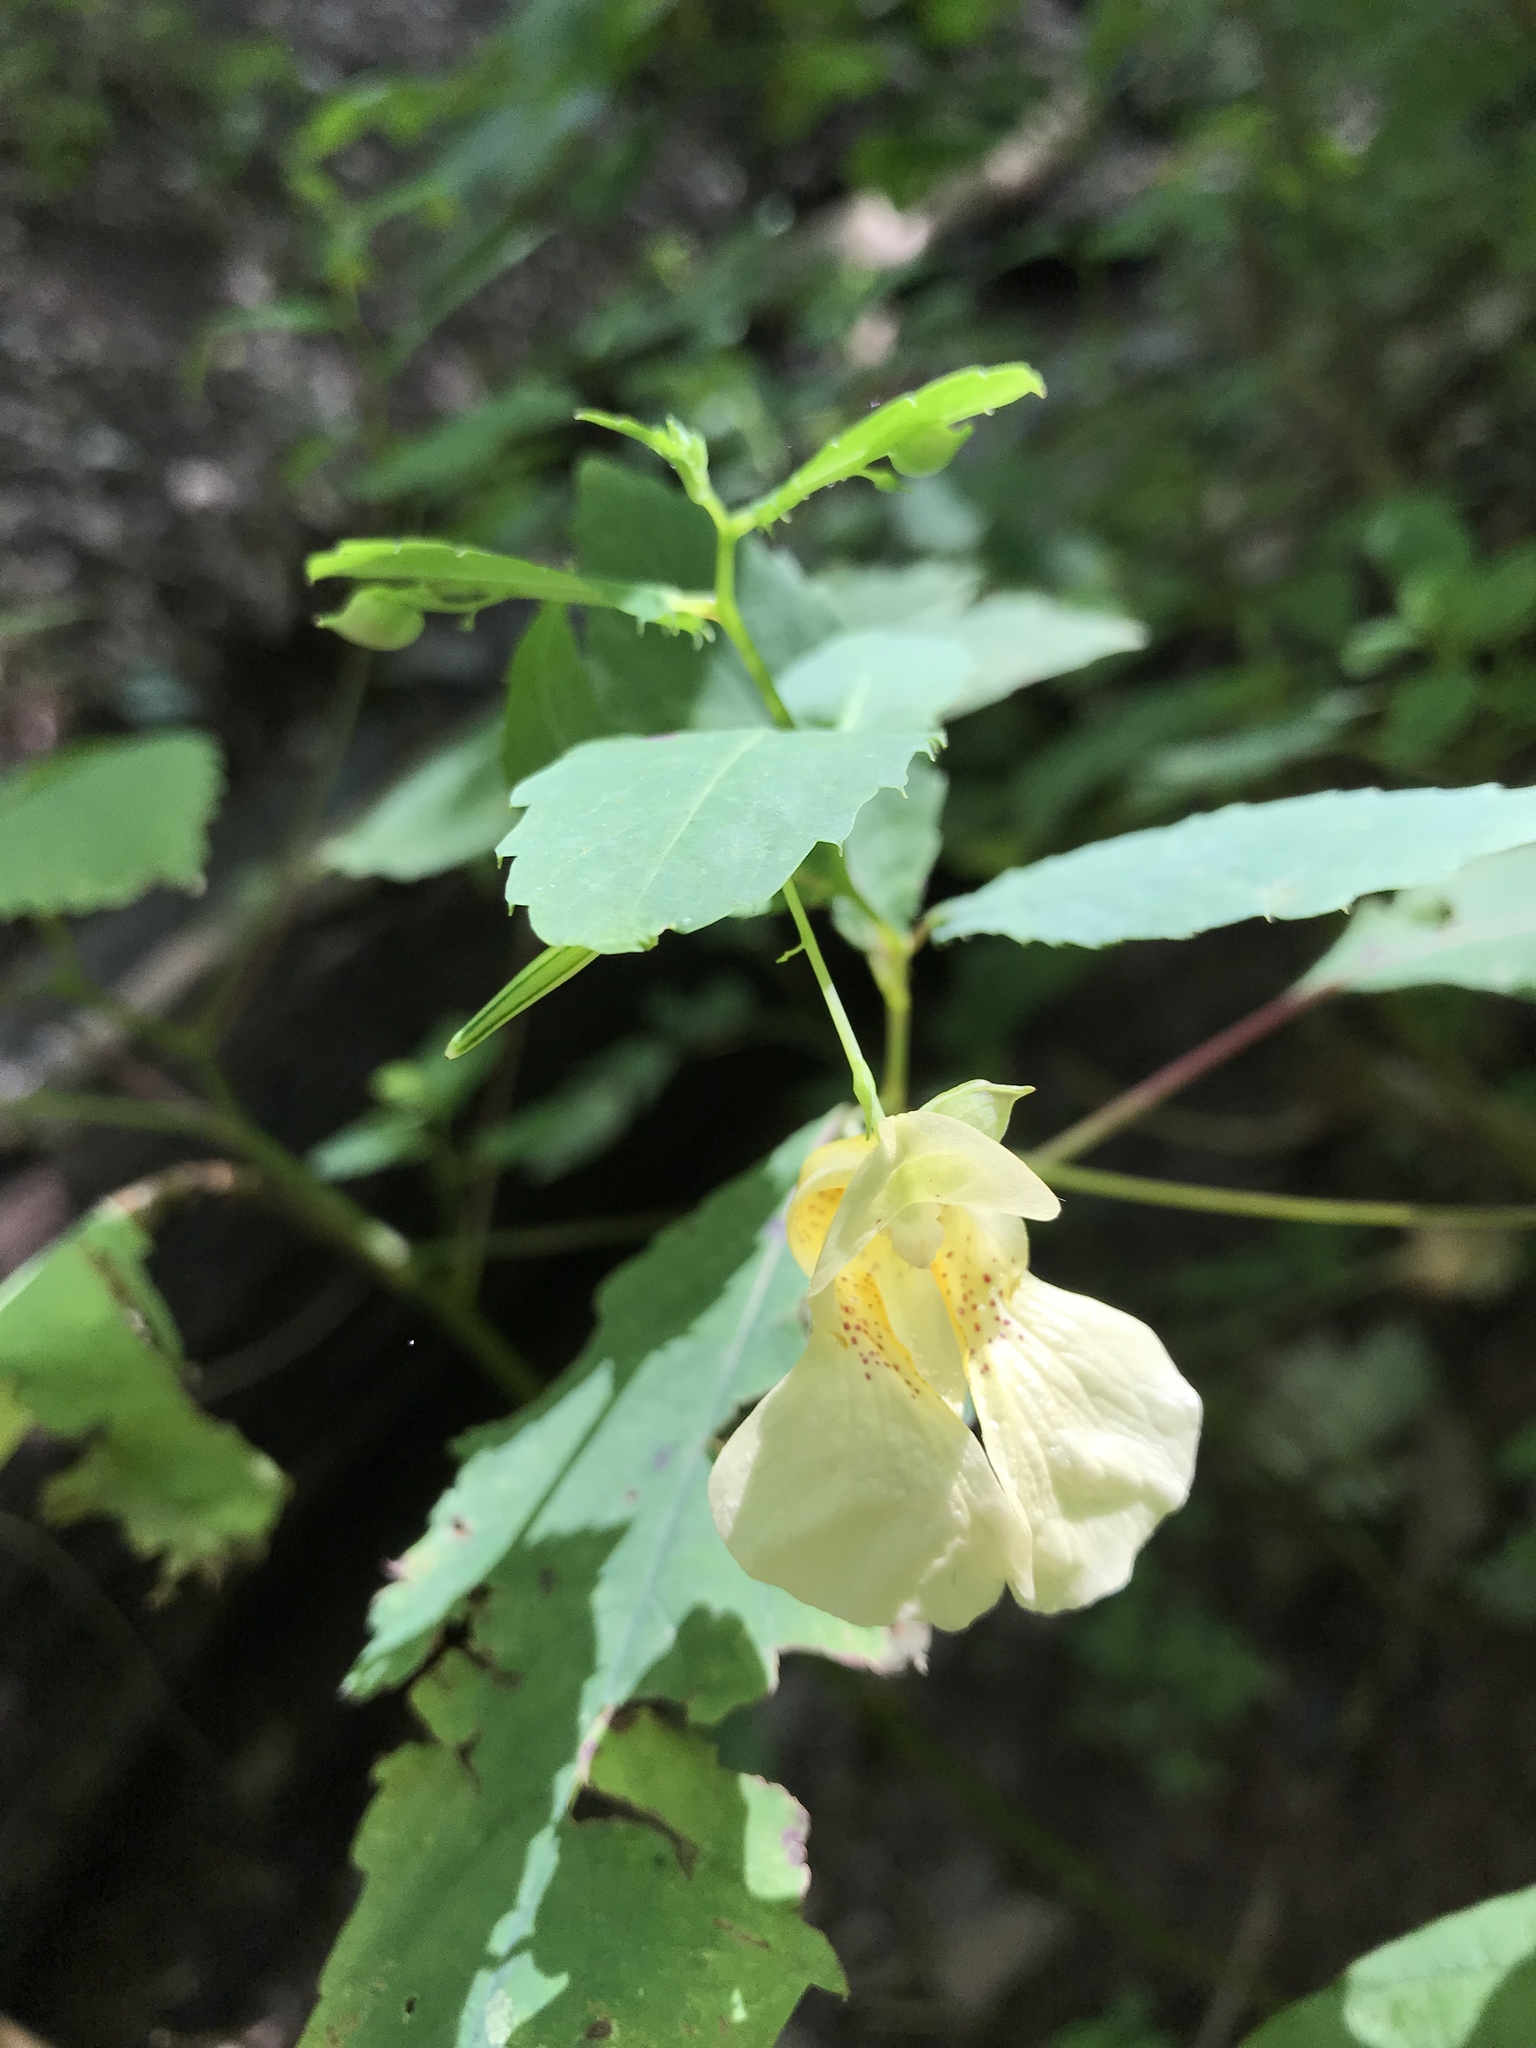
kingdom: Plantae
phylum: Tracheophyta
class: Magnoliopsida
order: Ericales
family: Balsaminaceae
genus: Impatiens
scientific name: Impatiens pallida
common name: Pale snapweed
